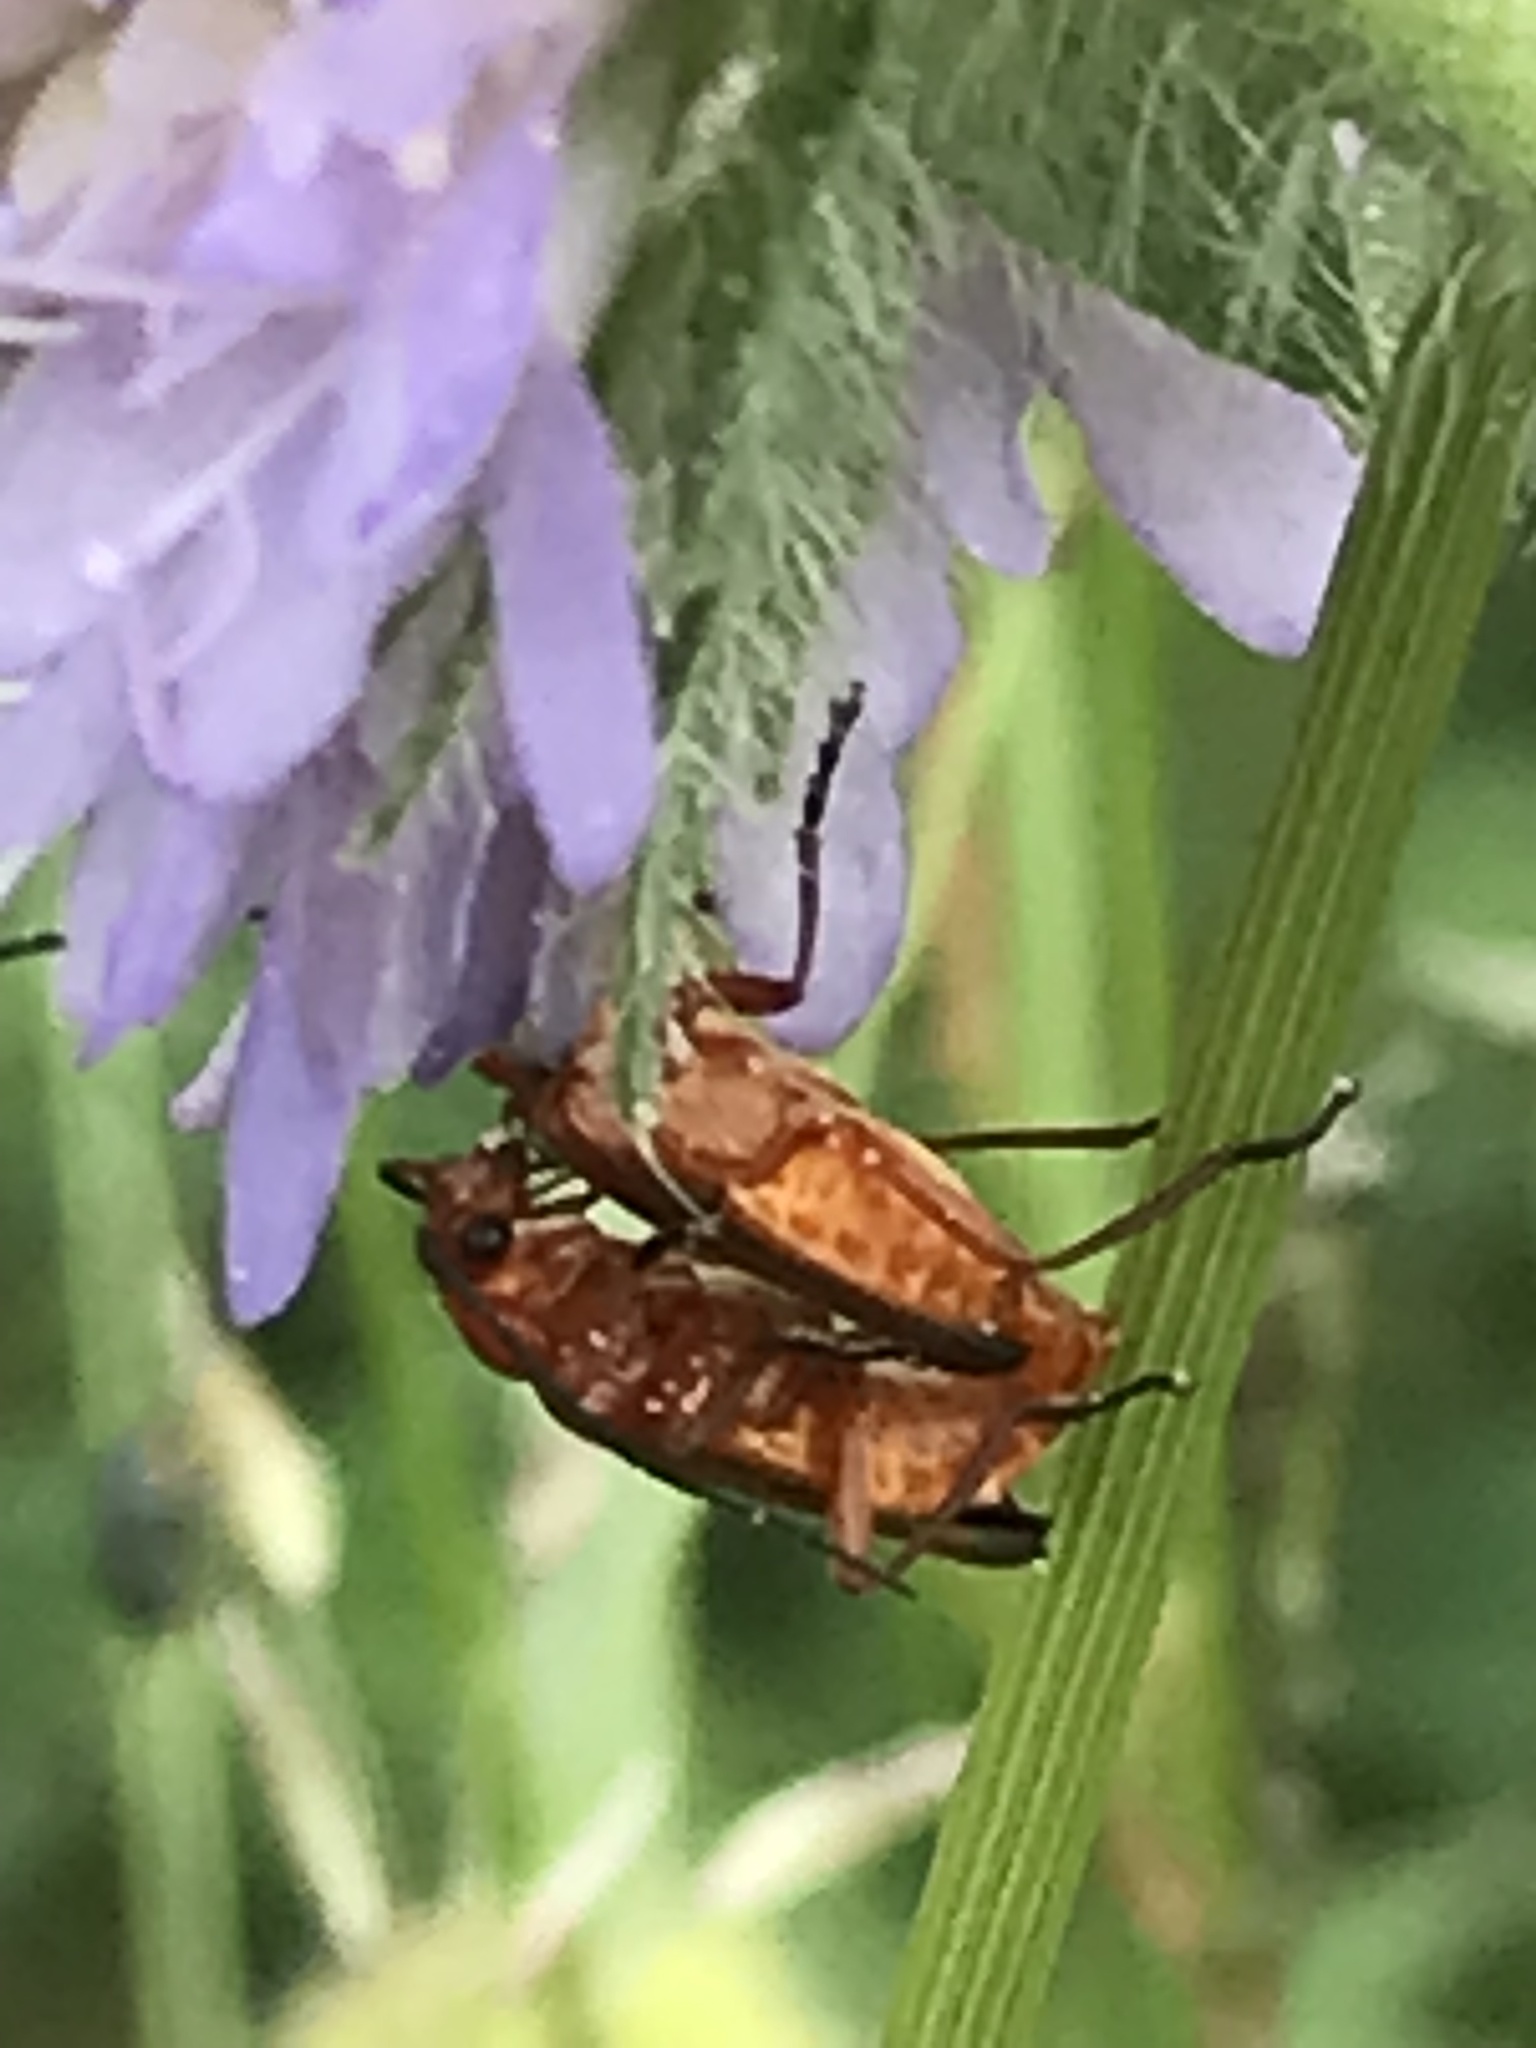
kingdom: Animalia
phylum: Arthropoda
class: Insecta
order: Coleoptera
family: Cantharidae
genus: Rhagonycha
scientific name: Rhagonycha fulva
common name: Common red soldier beetle
